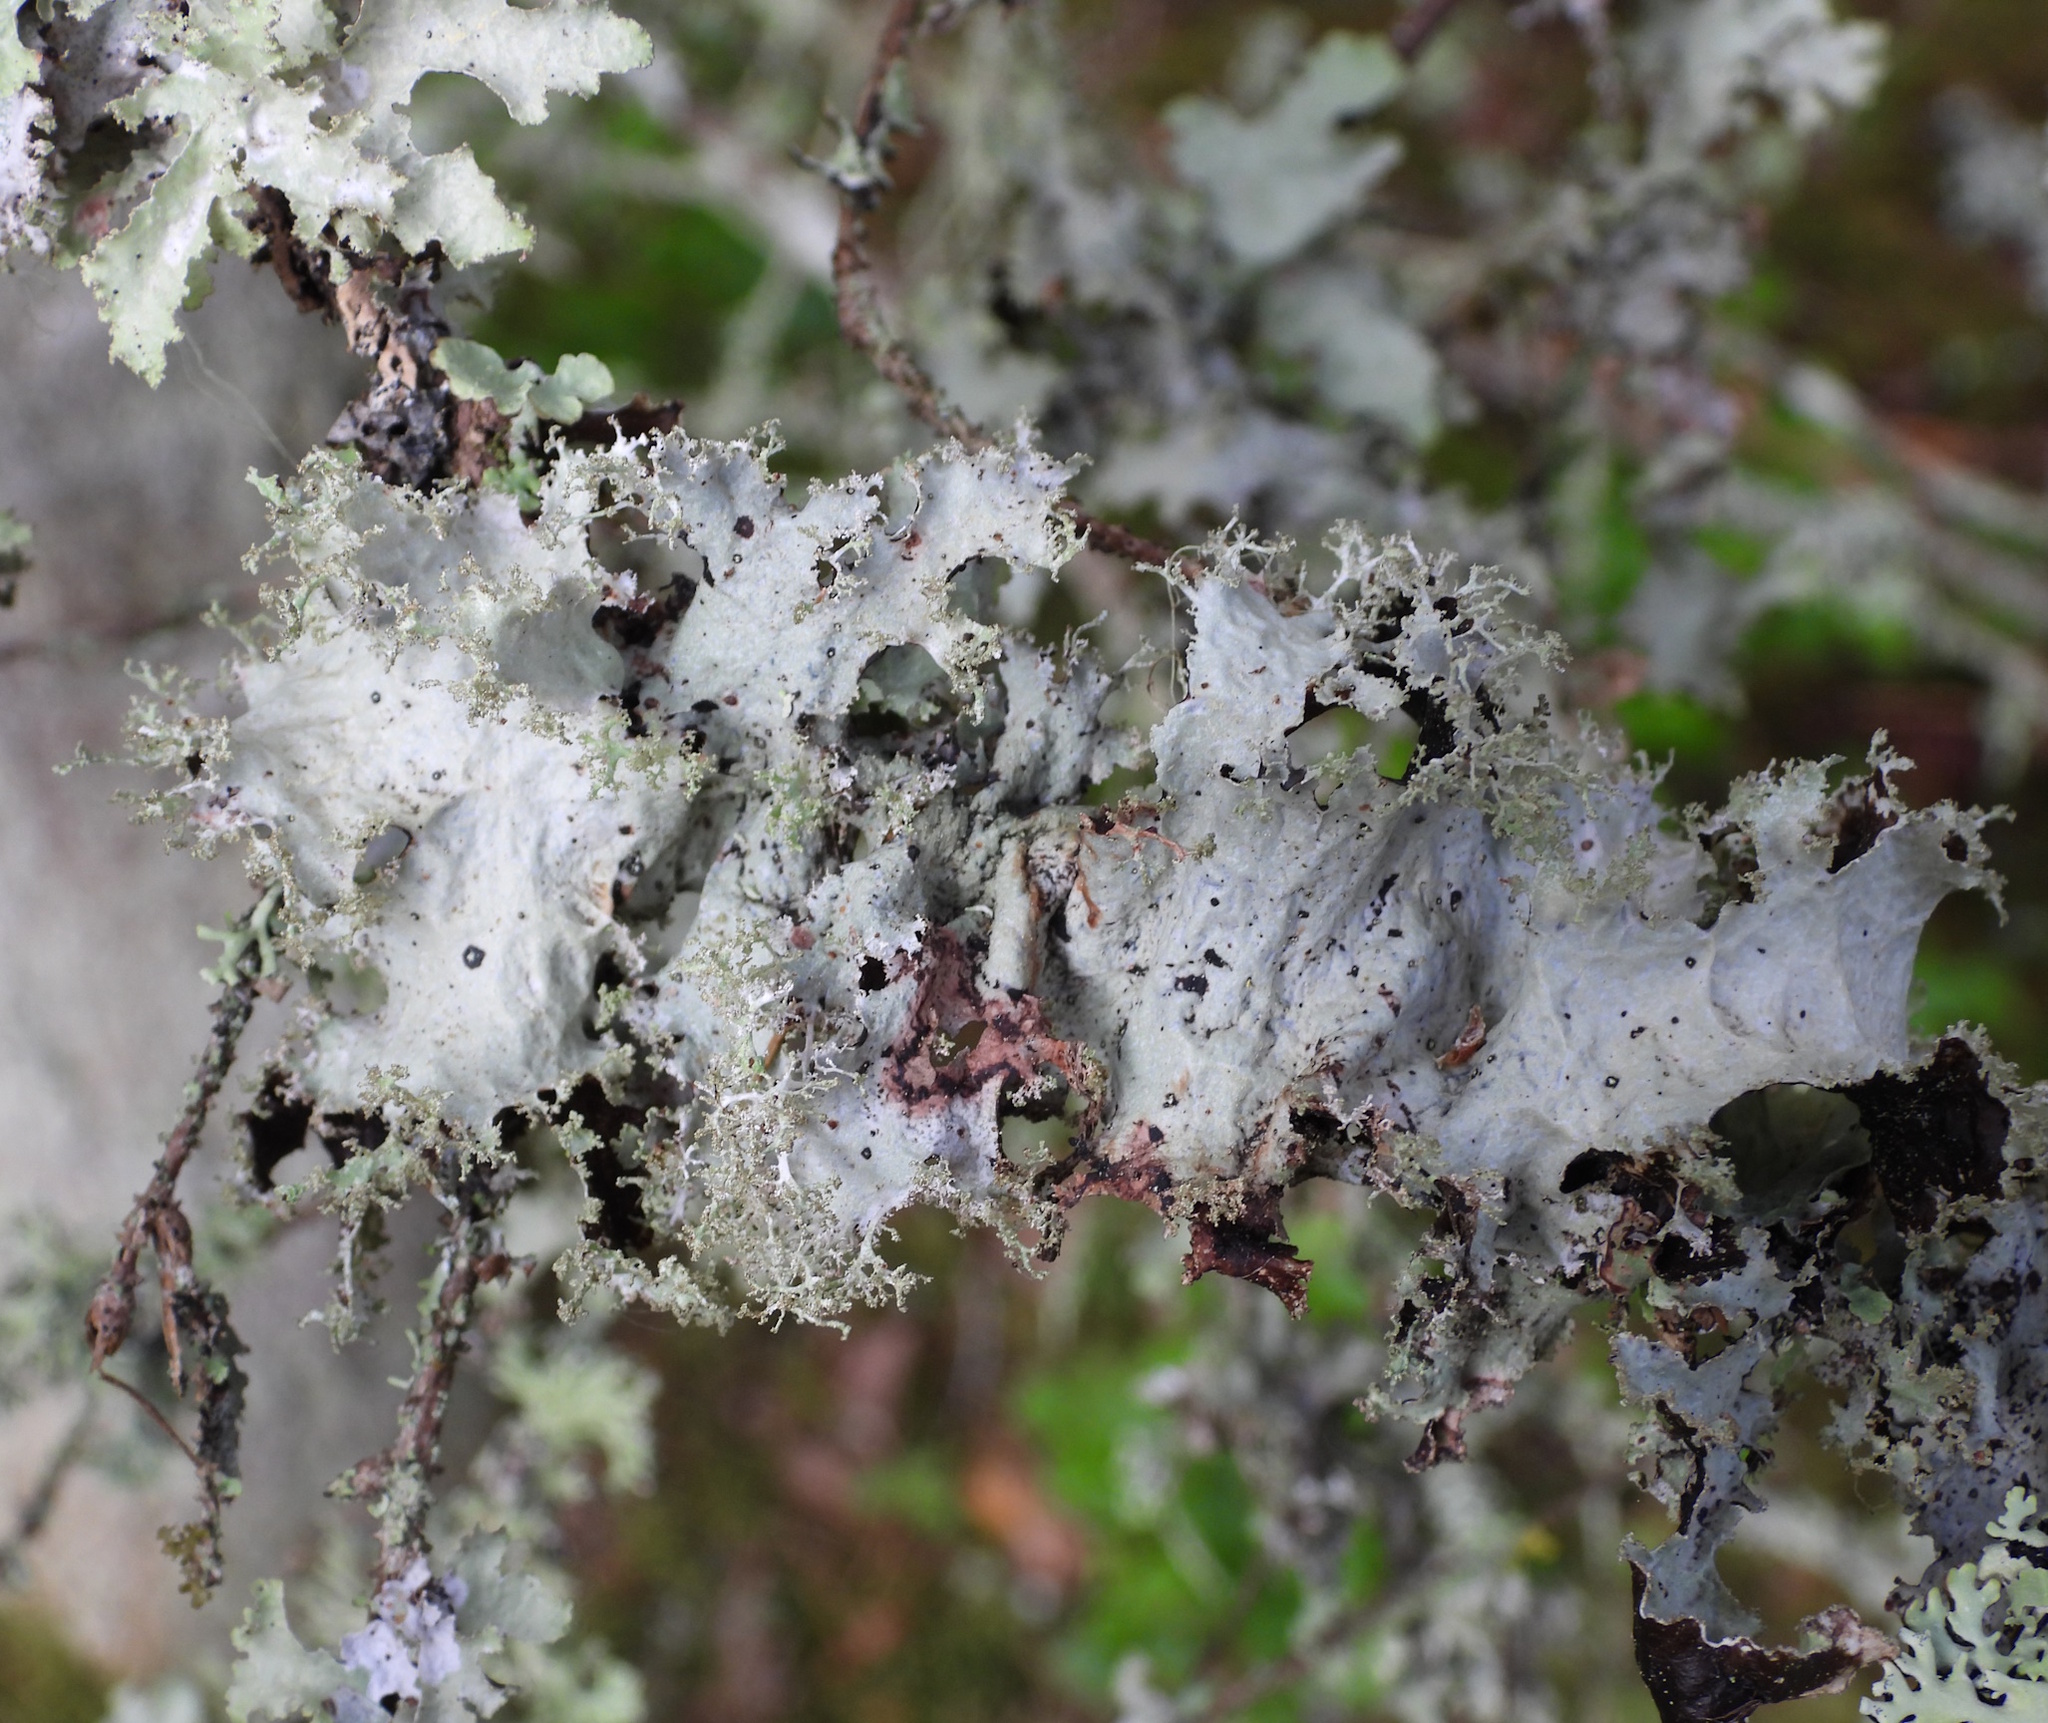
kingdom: Fungi
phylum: Ascomycota
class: Lecanoromycetes
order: Lecanorales
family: Parmeliaceae
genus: Platismatia
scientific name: Platismatia glauca
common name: Varied rag lichen
